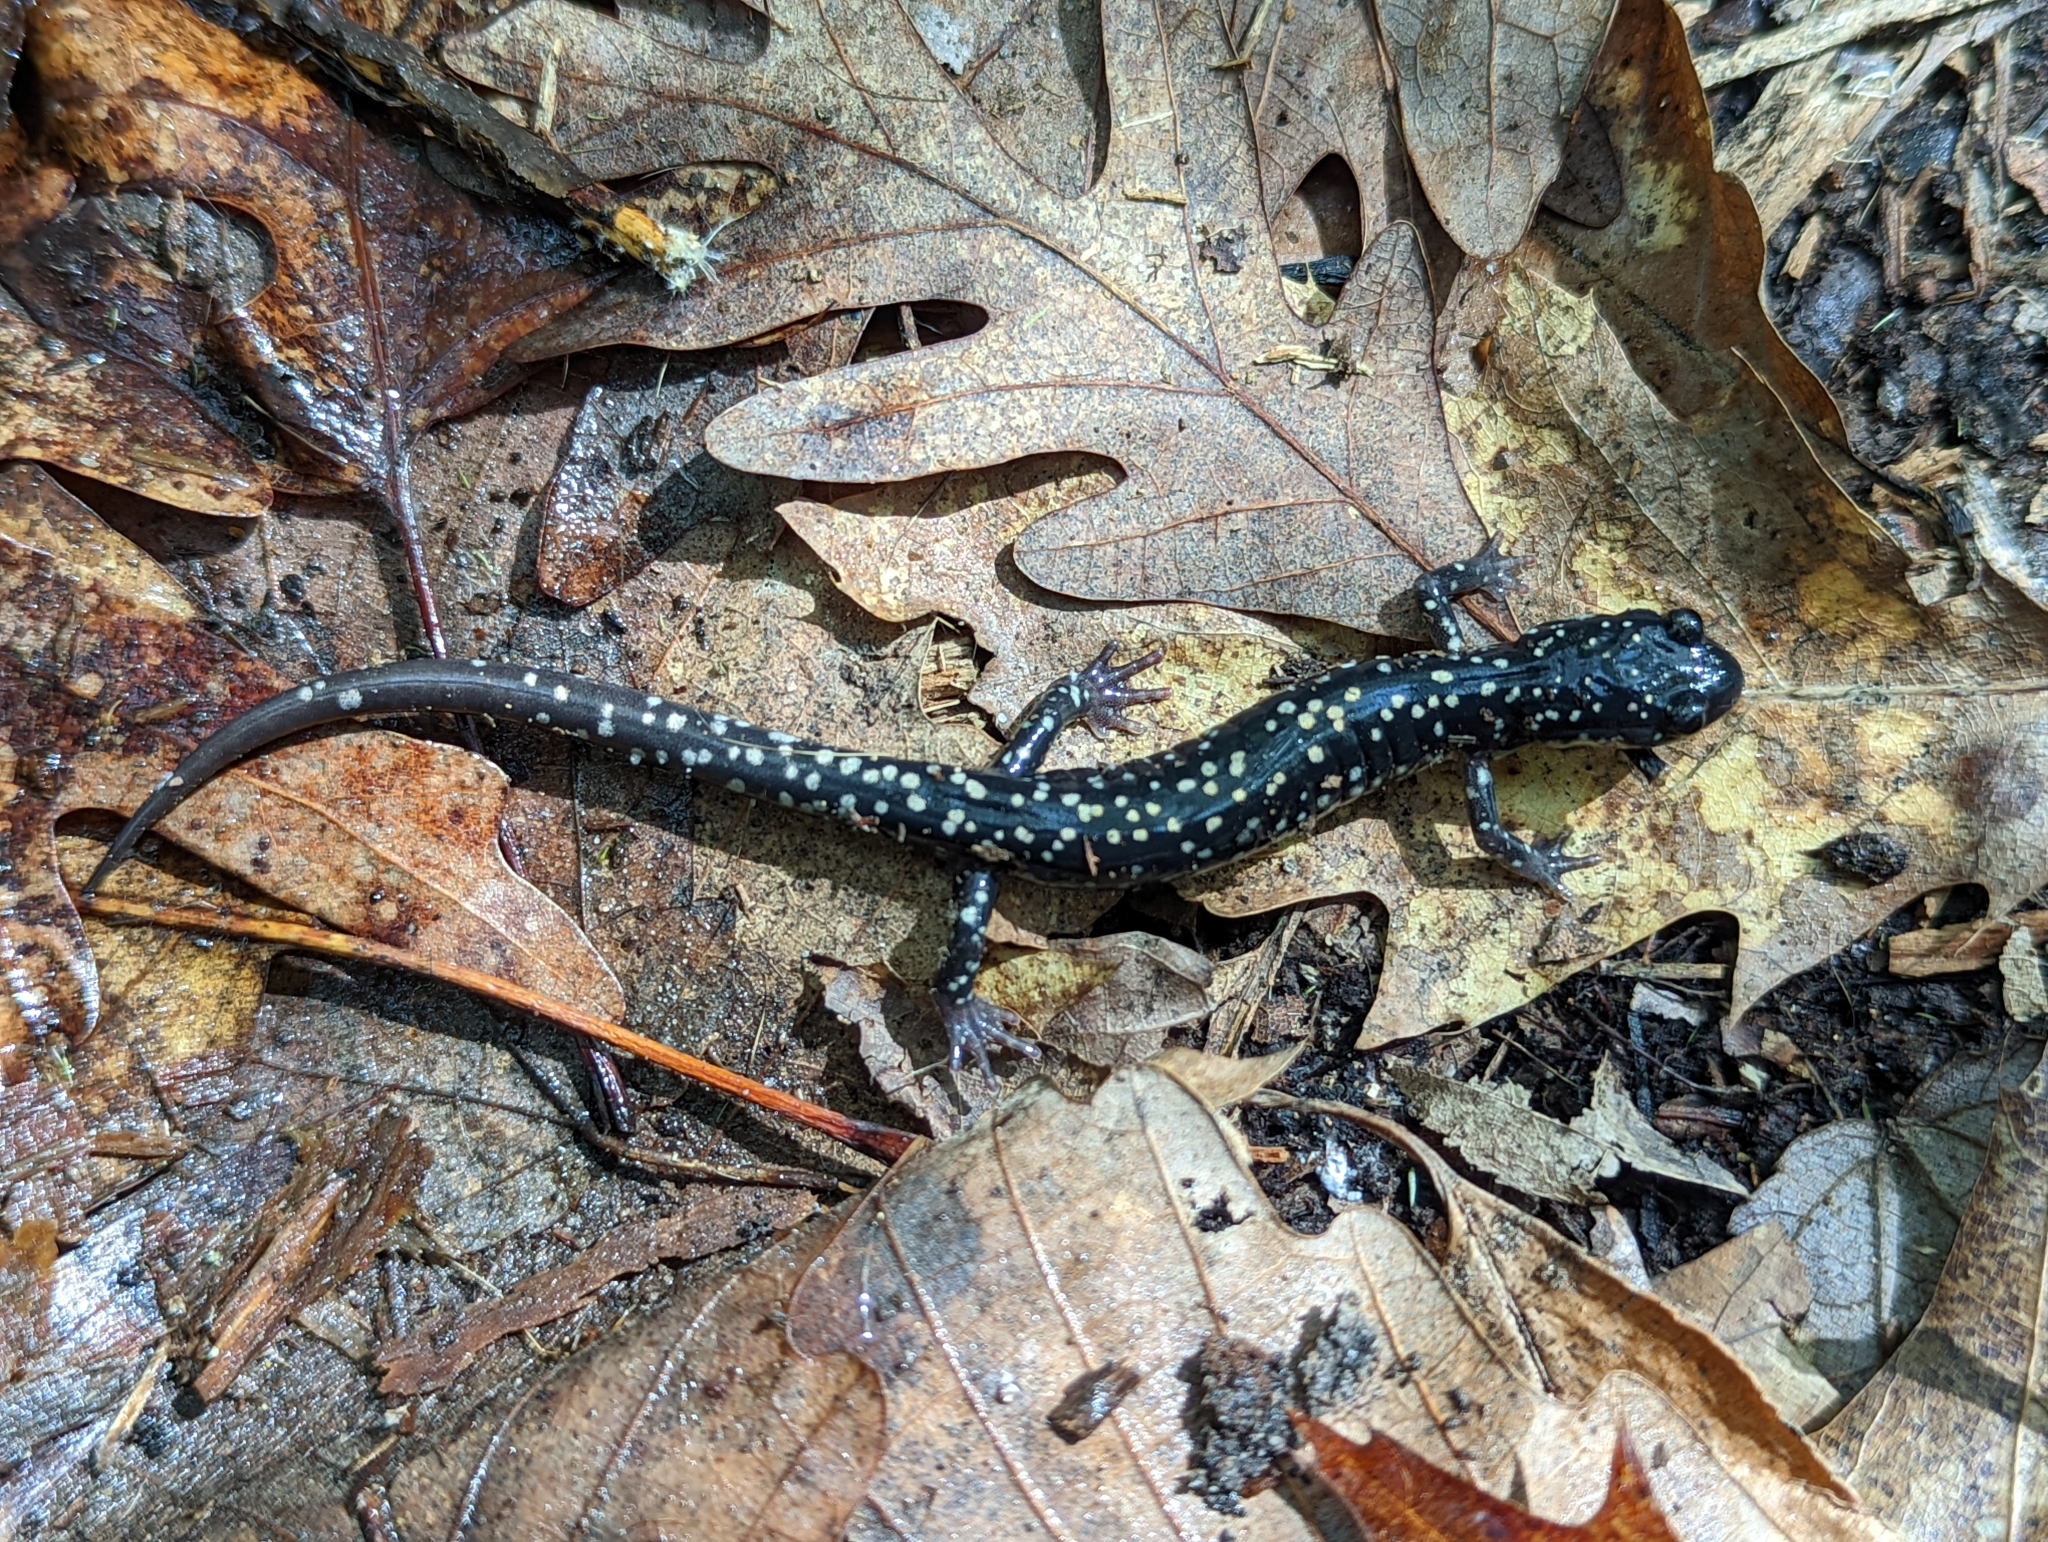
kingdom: Animalia
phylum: Chordata
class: Amphibia
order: Caudata
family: Plethodontidae
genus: Plethodon
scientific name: Plethodon glutinosus
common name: Northern slimy salamander
